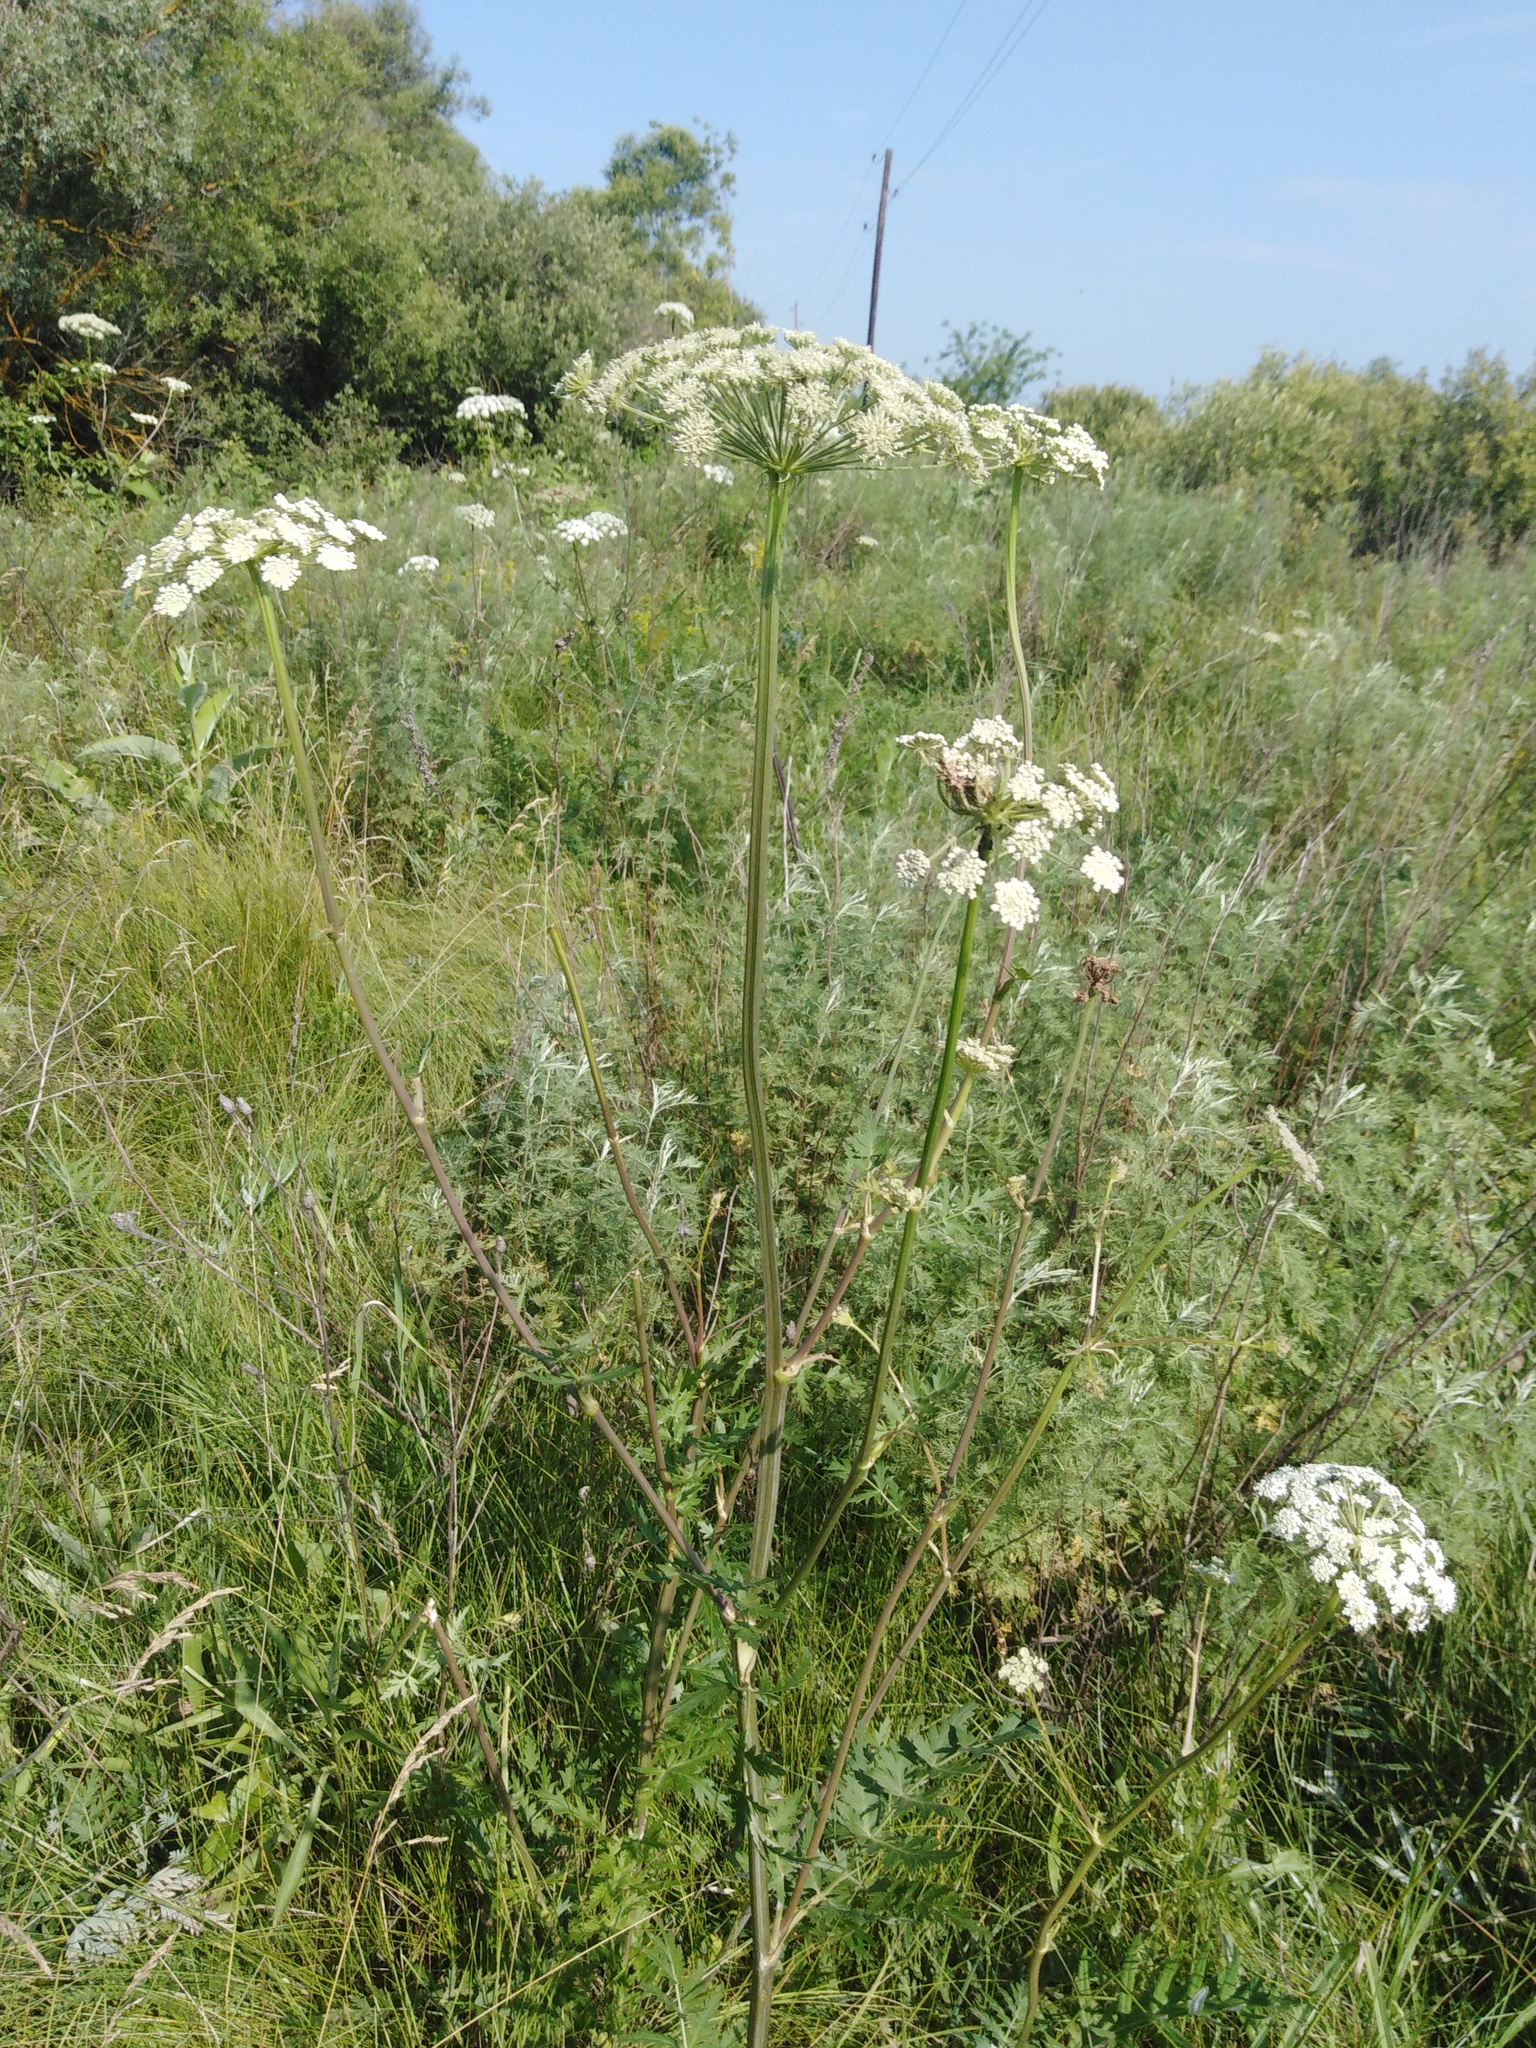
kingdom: Plantae
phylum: Tracheophyta
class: Magnoliopsida
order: Apiales
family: Apiaceae
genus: Seseli
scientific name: Seseli libanotis
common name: Mooncarrot
